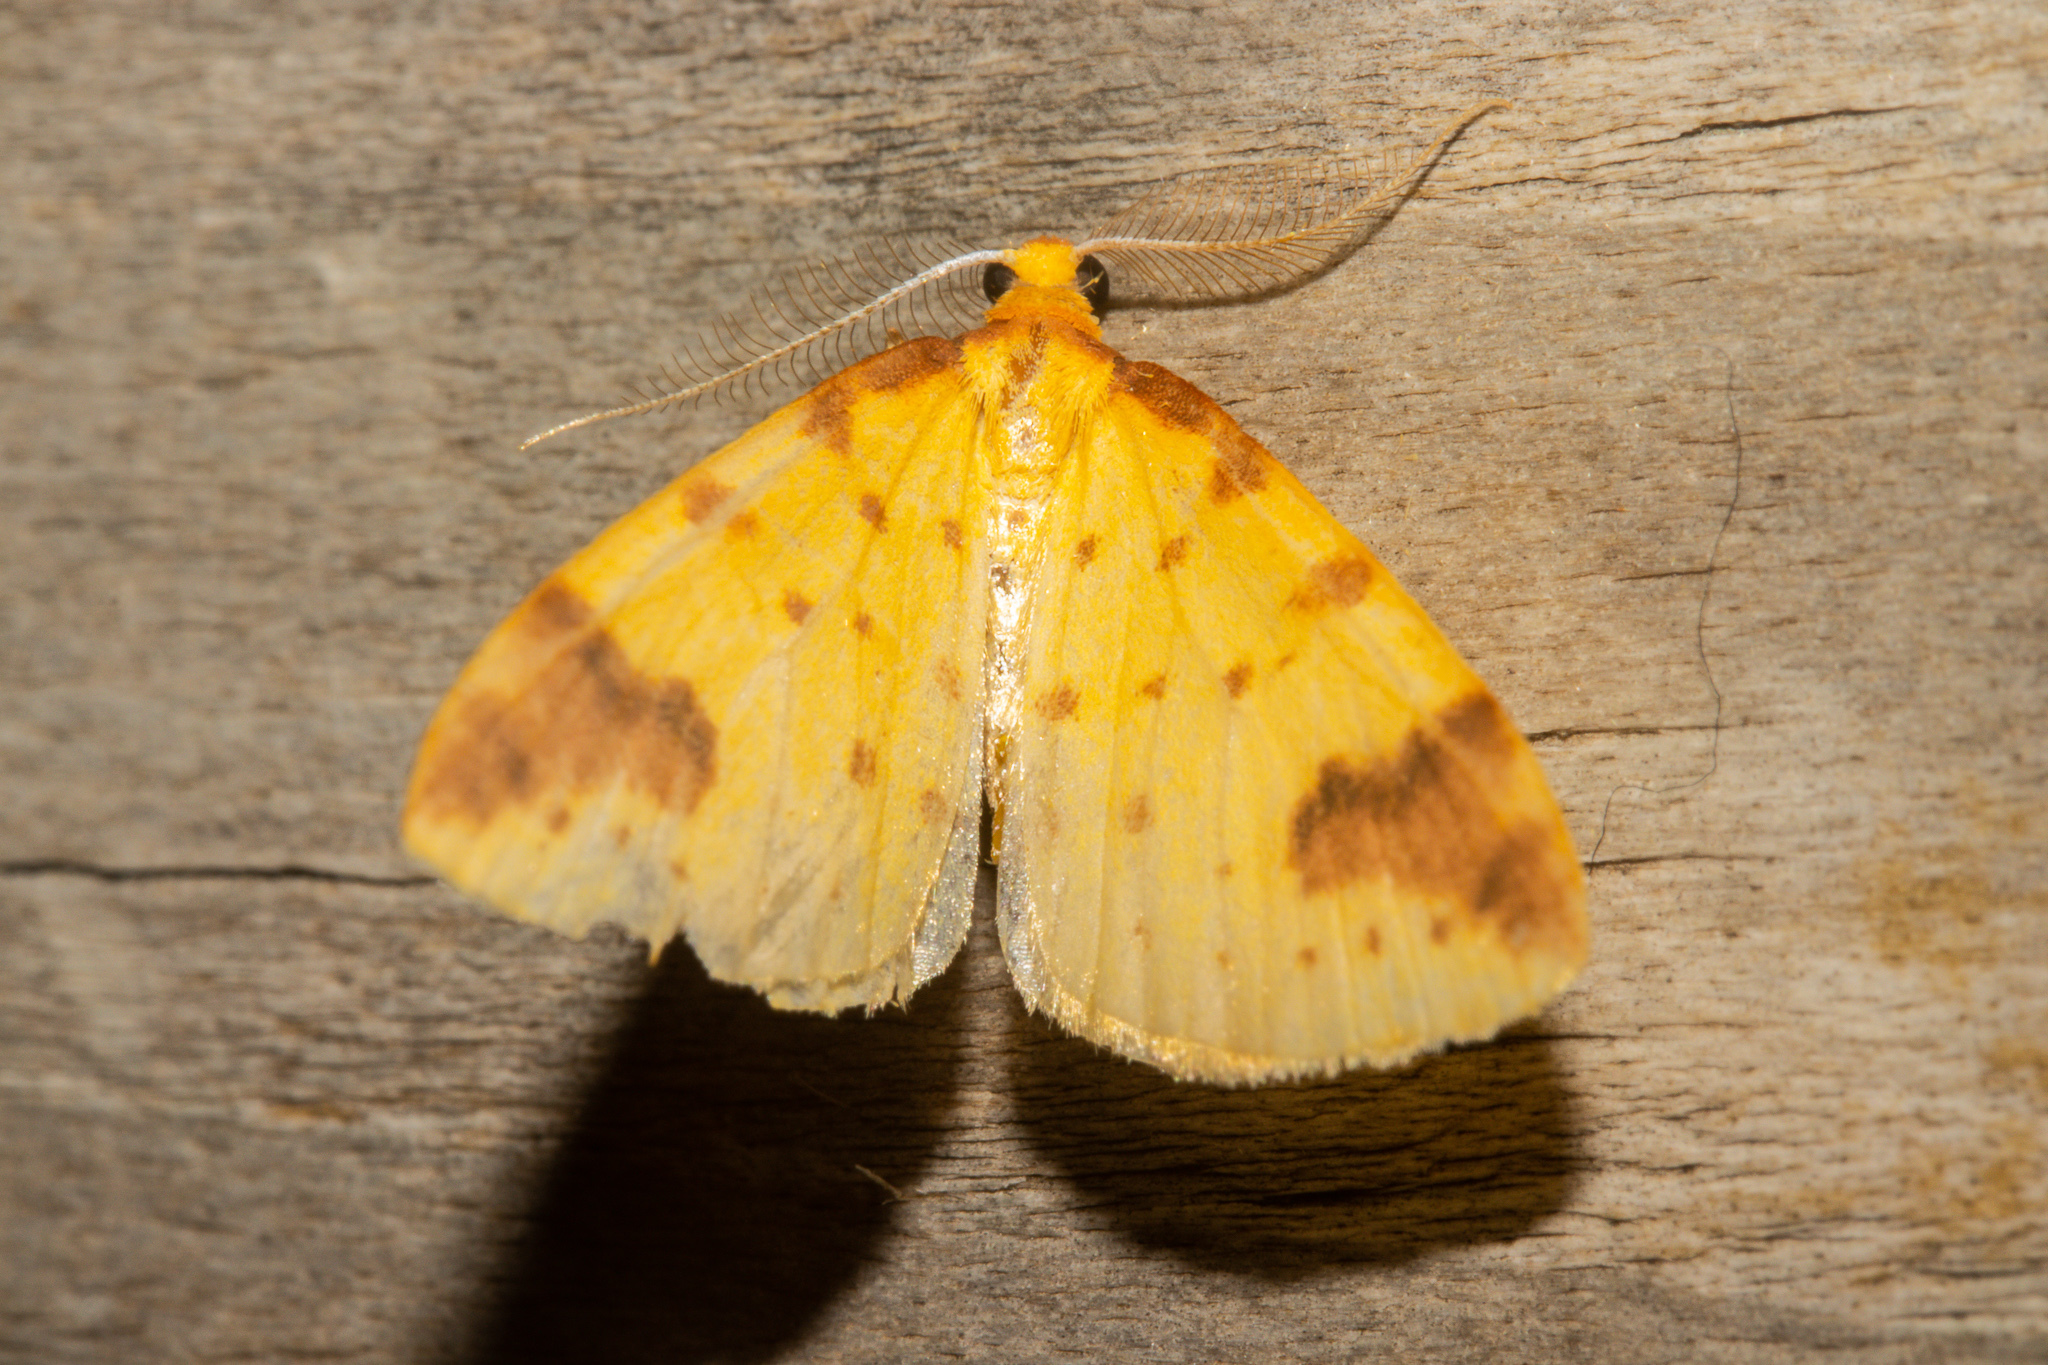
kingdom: Animalia
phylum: Arthropoda
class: Insecta
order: Lepidoptera
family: Geometridae
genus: Orthoclydon
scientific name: Orthoclydon chlorias
